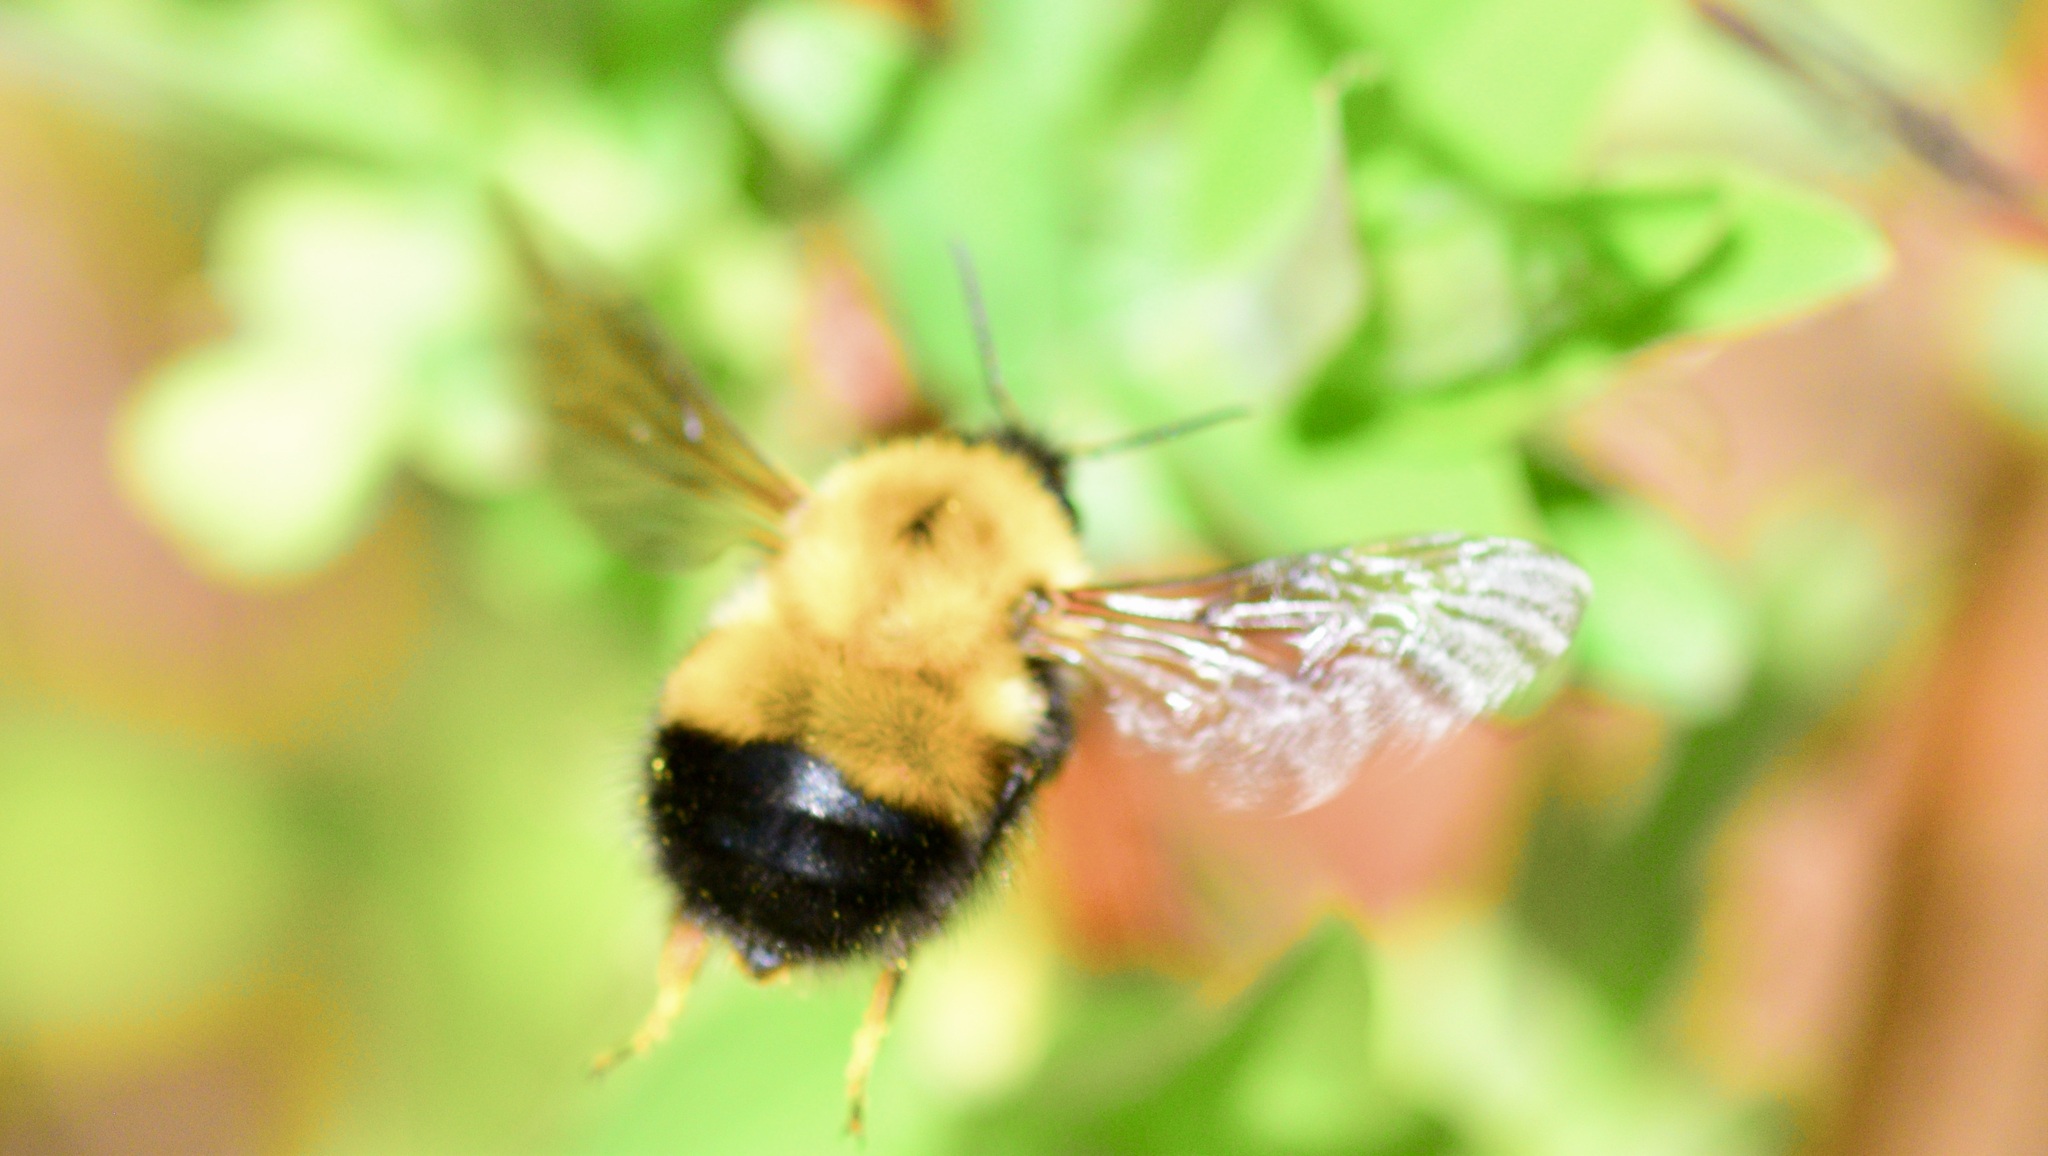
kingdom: Animalia
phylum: Arthropoda
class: Insecta
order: Hymenoptera
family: Apidae
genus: Bombus
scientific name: Bombus perplexus
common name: Confusing bumble bee
